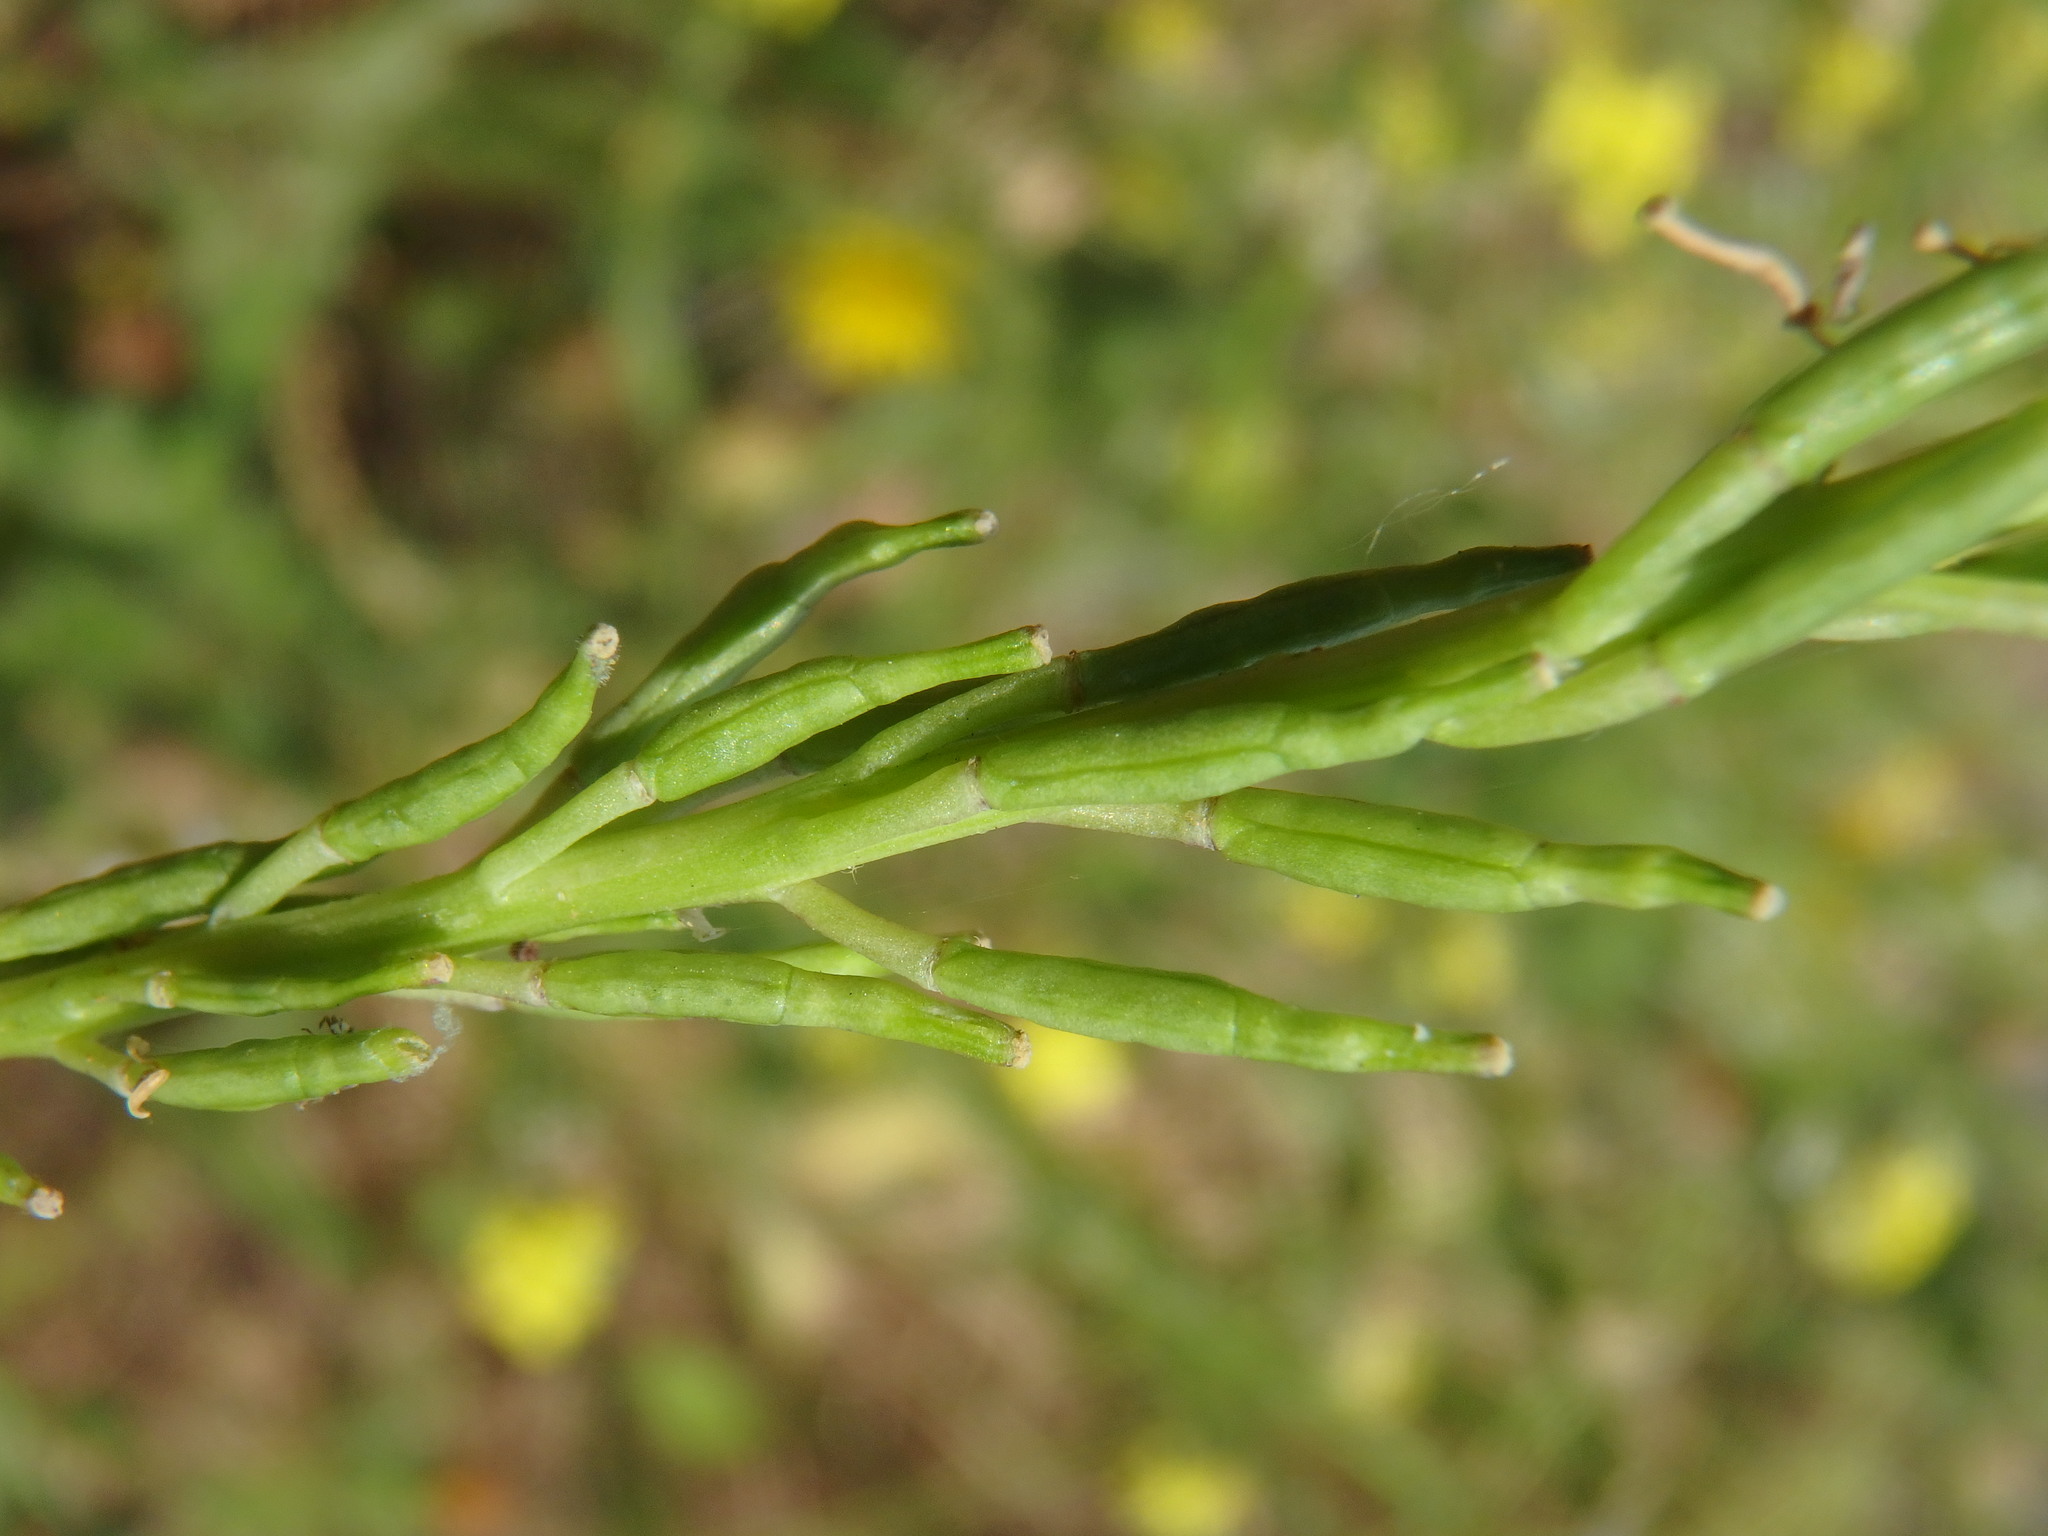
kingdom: Plantae
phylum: Tracheophyta
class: Magnoliopsida
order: Brassicales
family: Brassicaceae
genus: Hirschfeldia
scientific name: Hirschfeldia incana
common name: Hoary mustard
